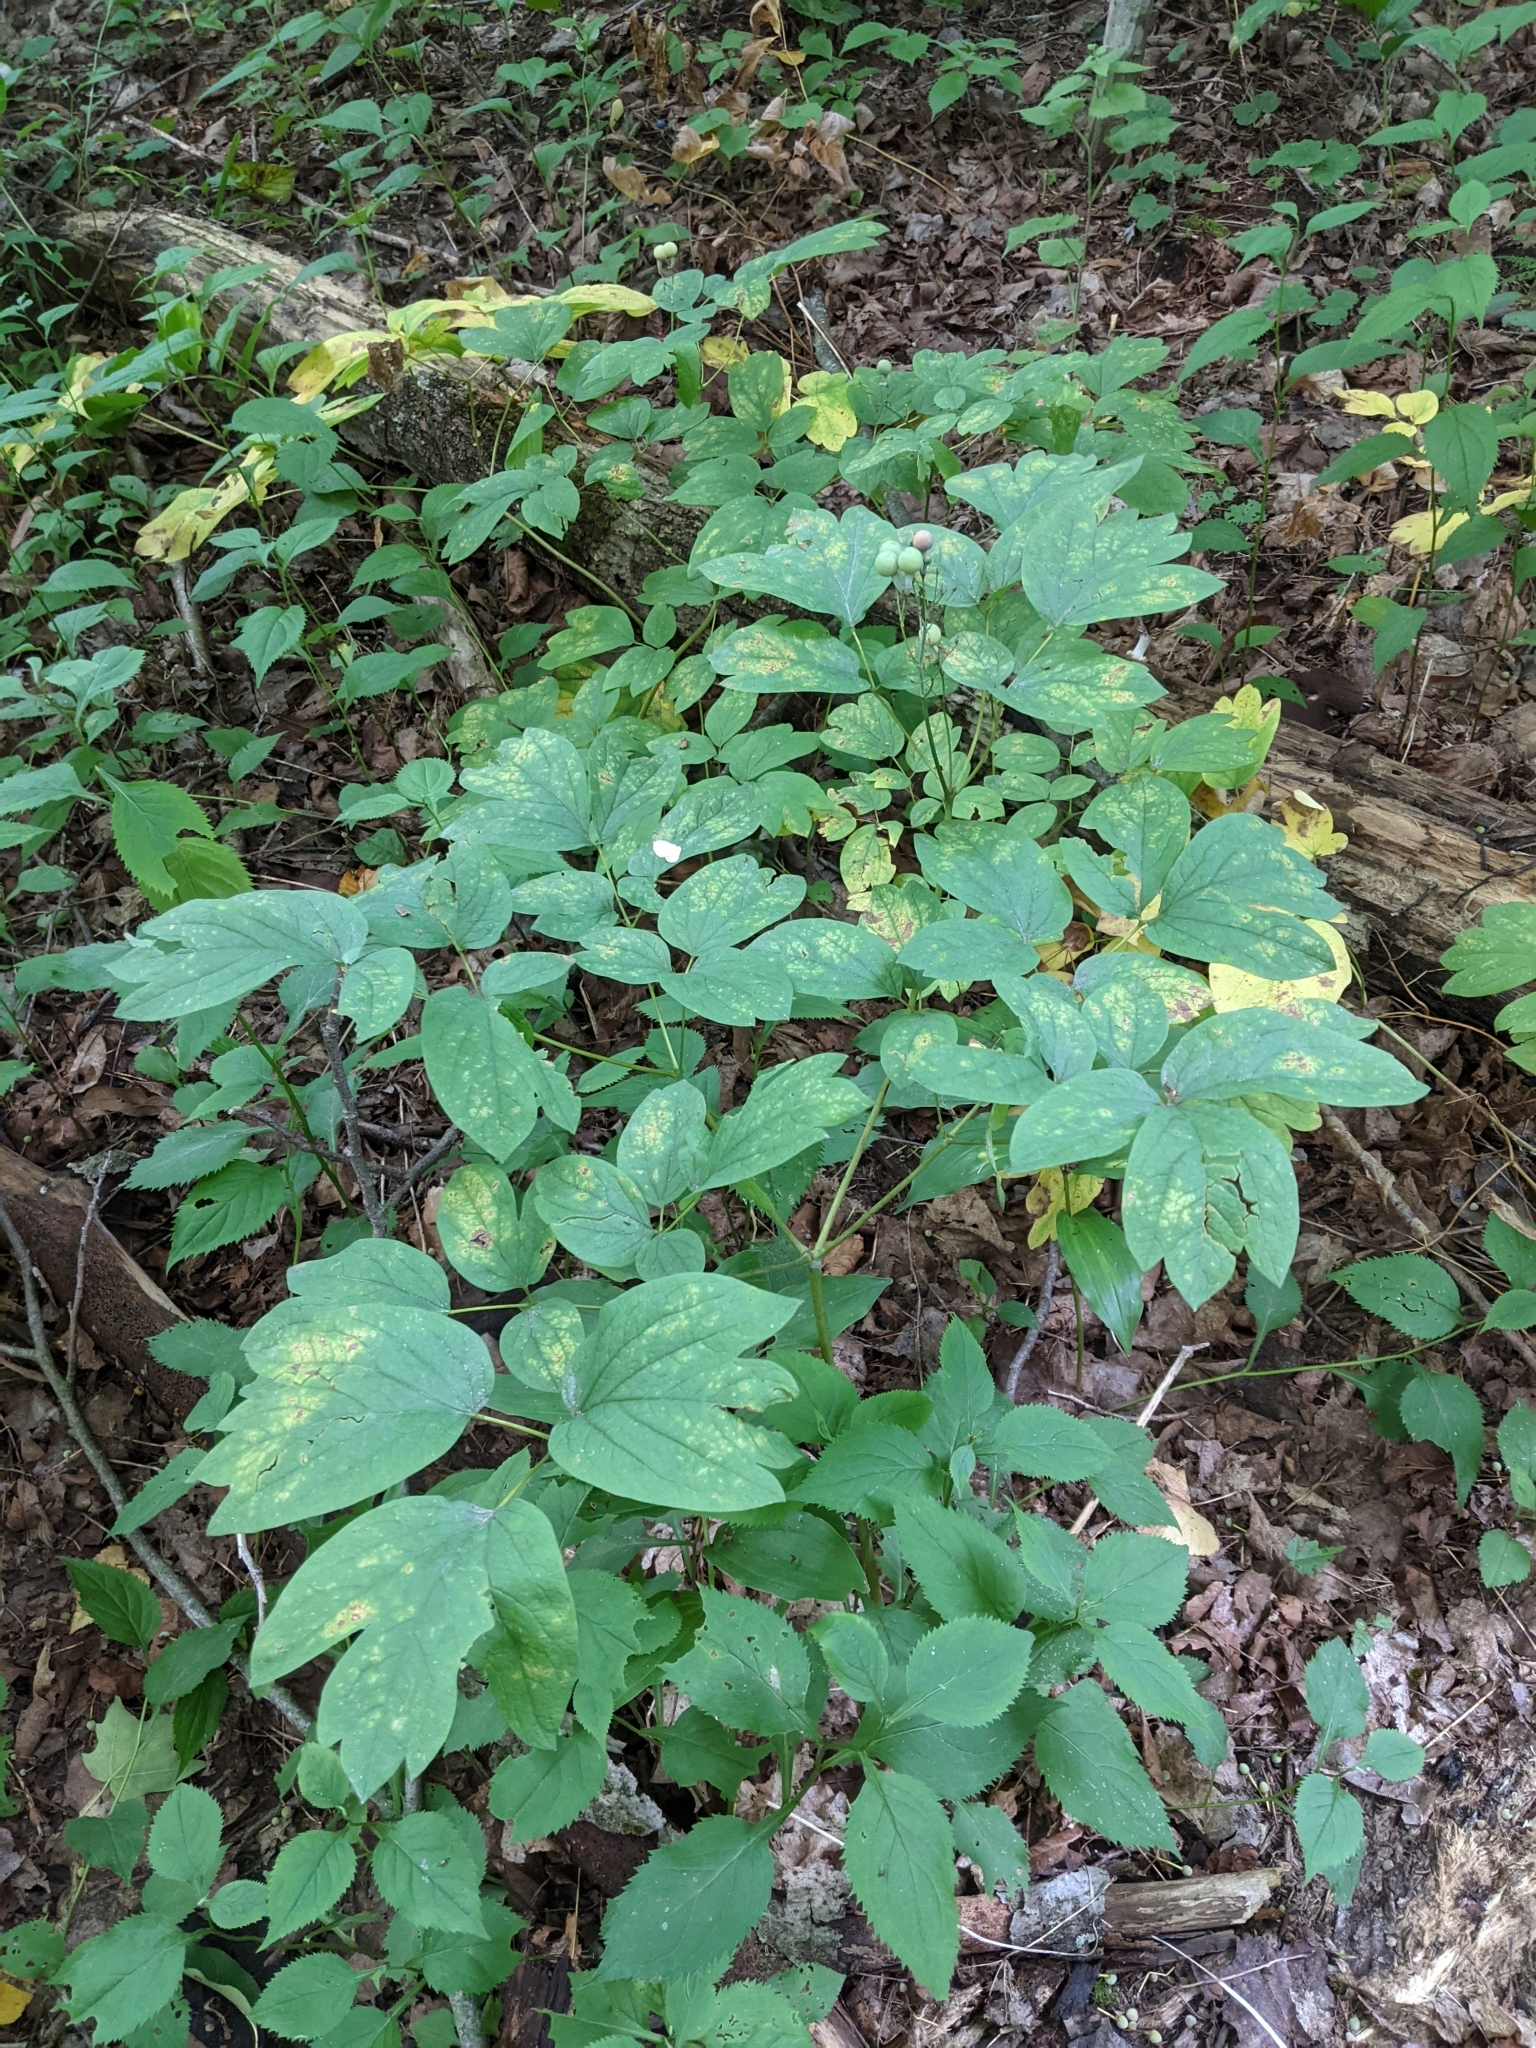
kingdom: Plantae
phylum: Tracheophyta
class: Magnoliopsida
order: Ranunculales
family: Berberidaceae
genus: Caulophyllum
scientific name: Caulophyllum thalictroides
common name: Blue cohosh
